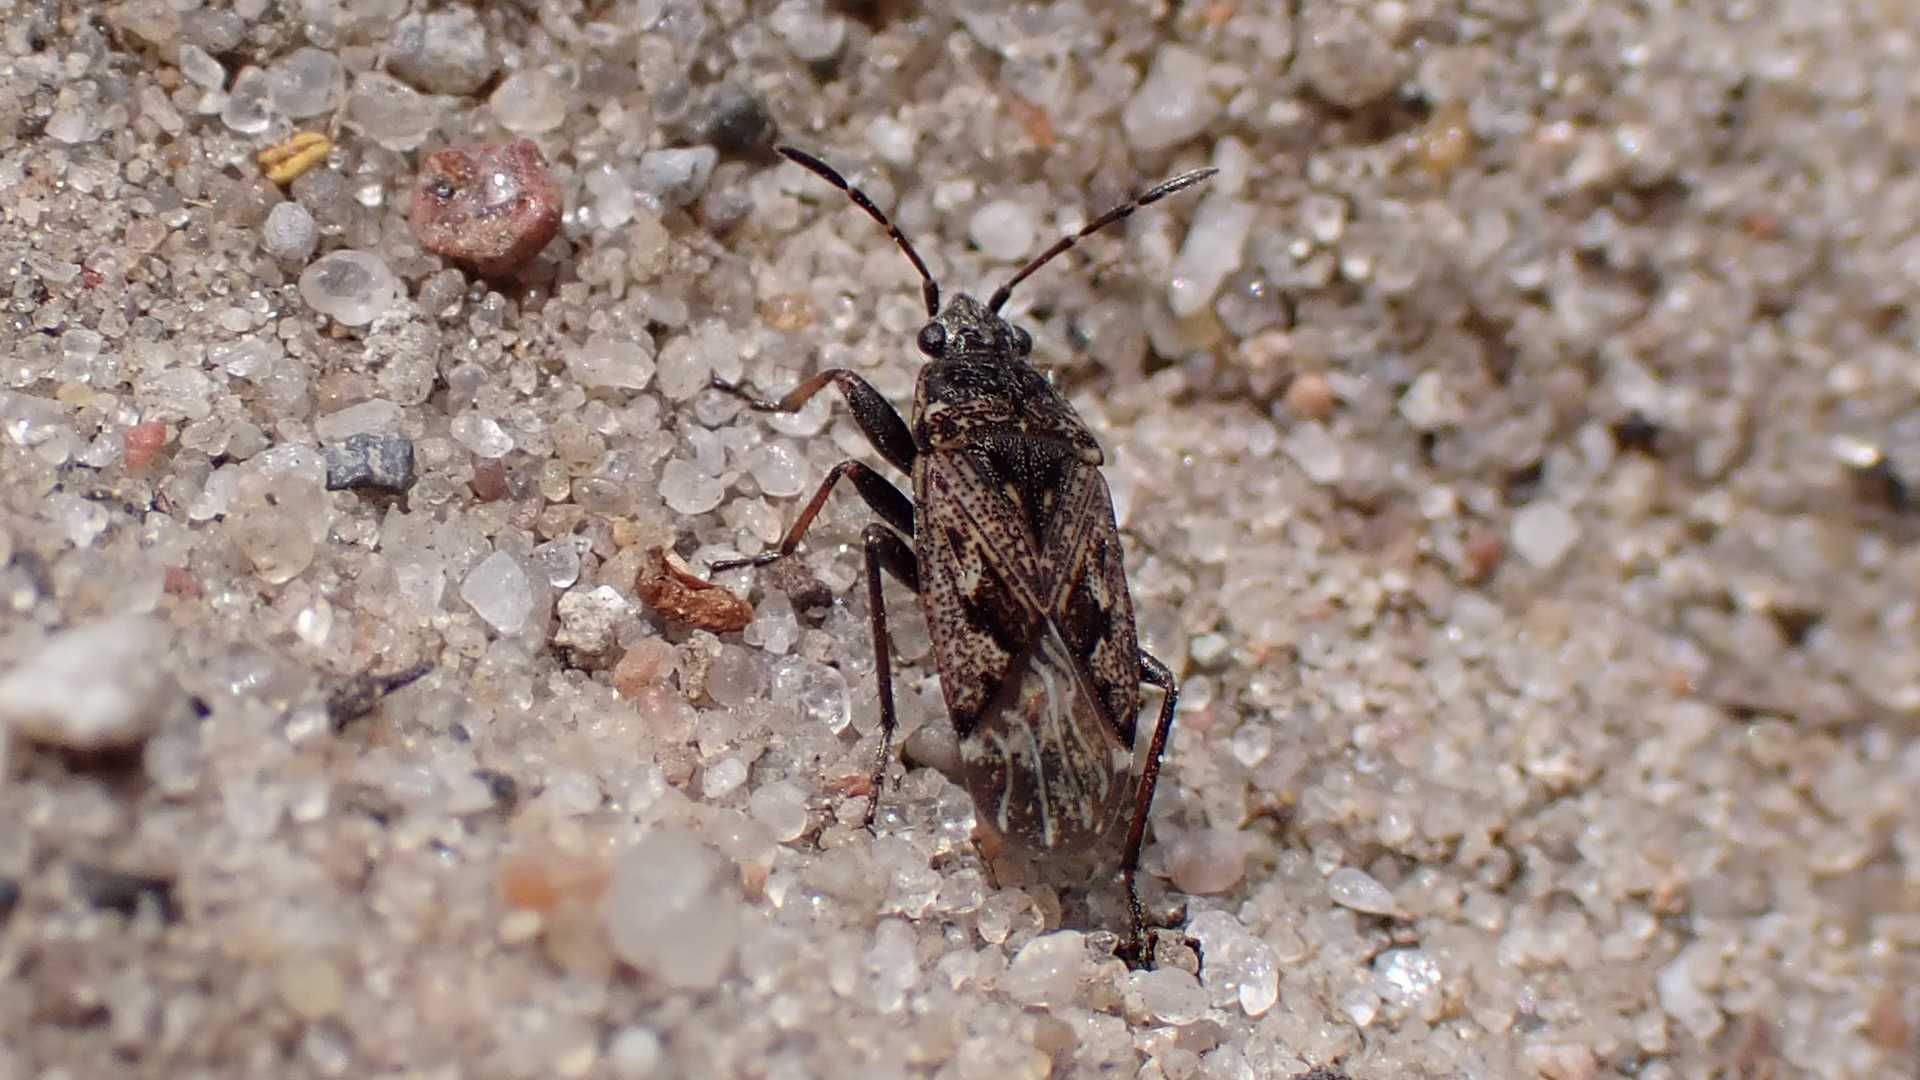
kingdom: Animalia
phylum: Arthropoda
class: Insecta
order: Hemiptera
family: Rhyparochromidae
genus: Sphragisticus
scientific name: Sphragisticus nebulosus
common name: Dirt-colored seed bug
